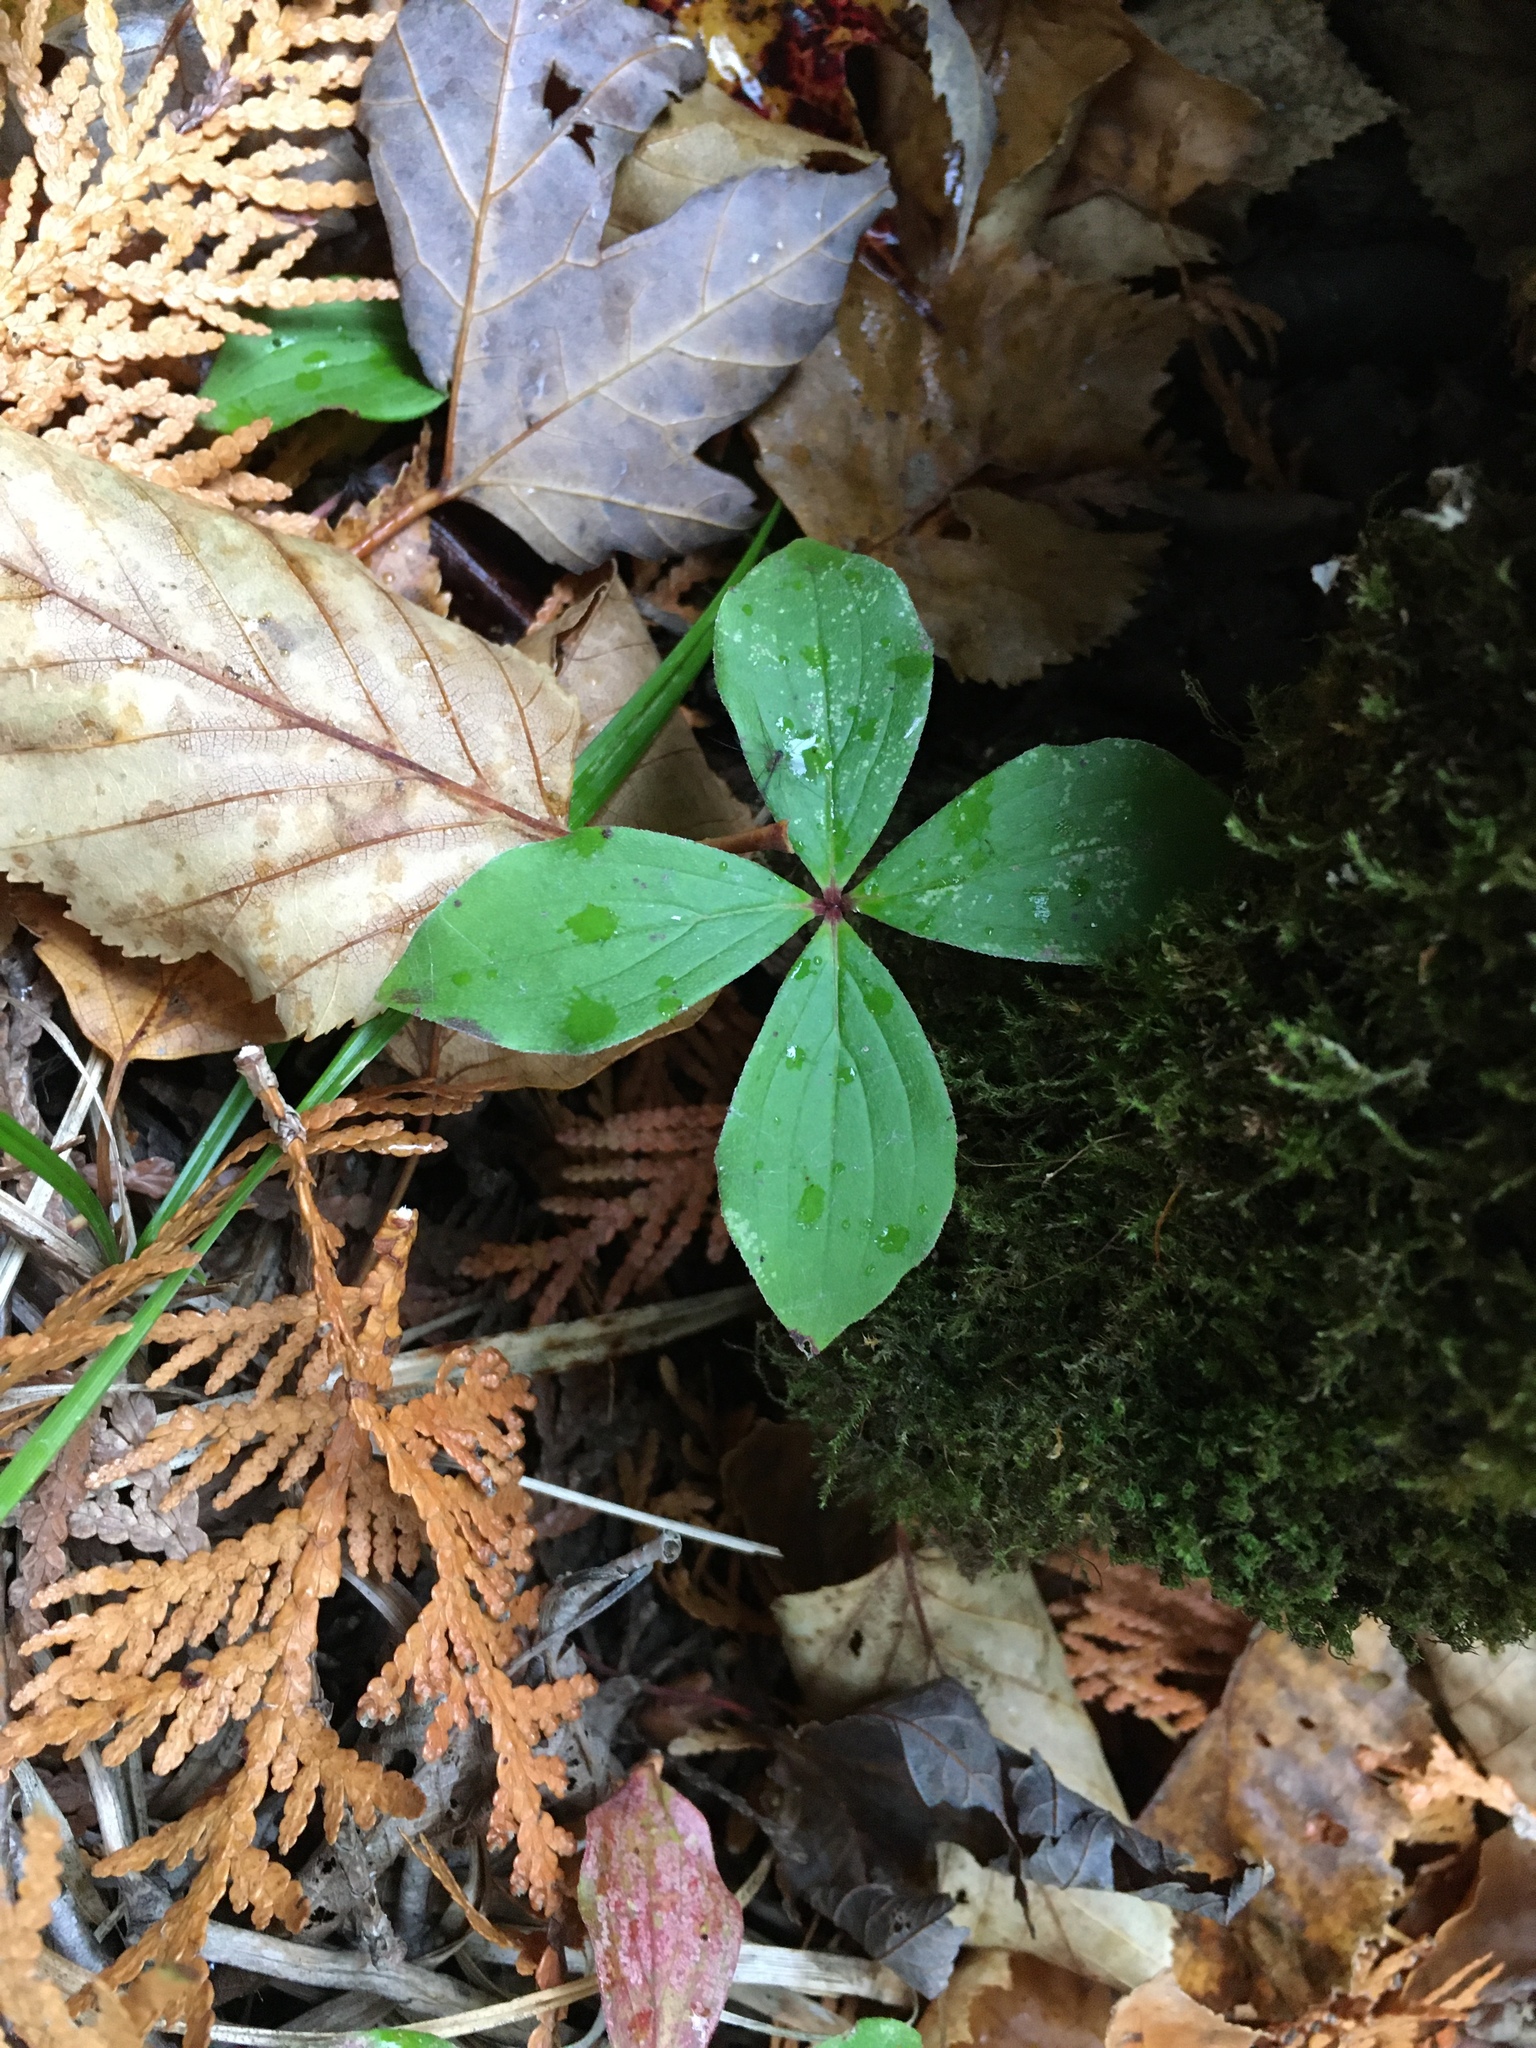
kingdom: Plantae
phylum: Tracheophyta
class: Magnoliopsida
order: Cornales
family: Cornaceae
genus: Cornus
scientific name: Cornus canadensis
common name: Creeping dogwood
